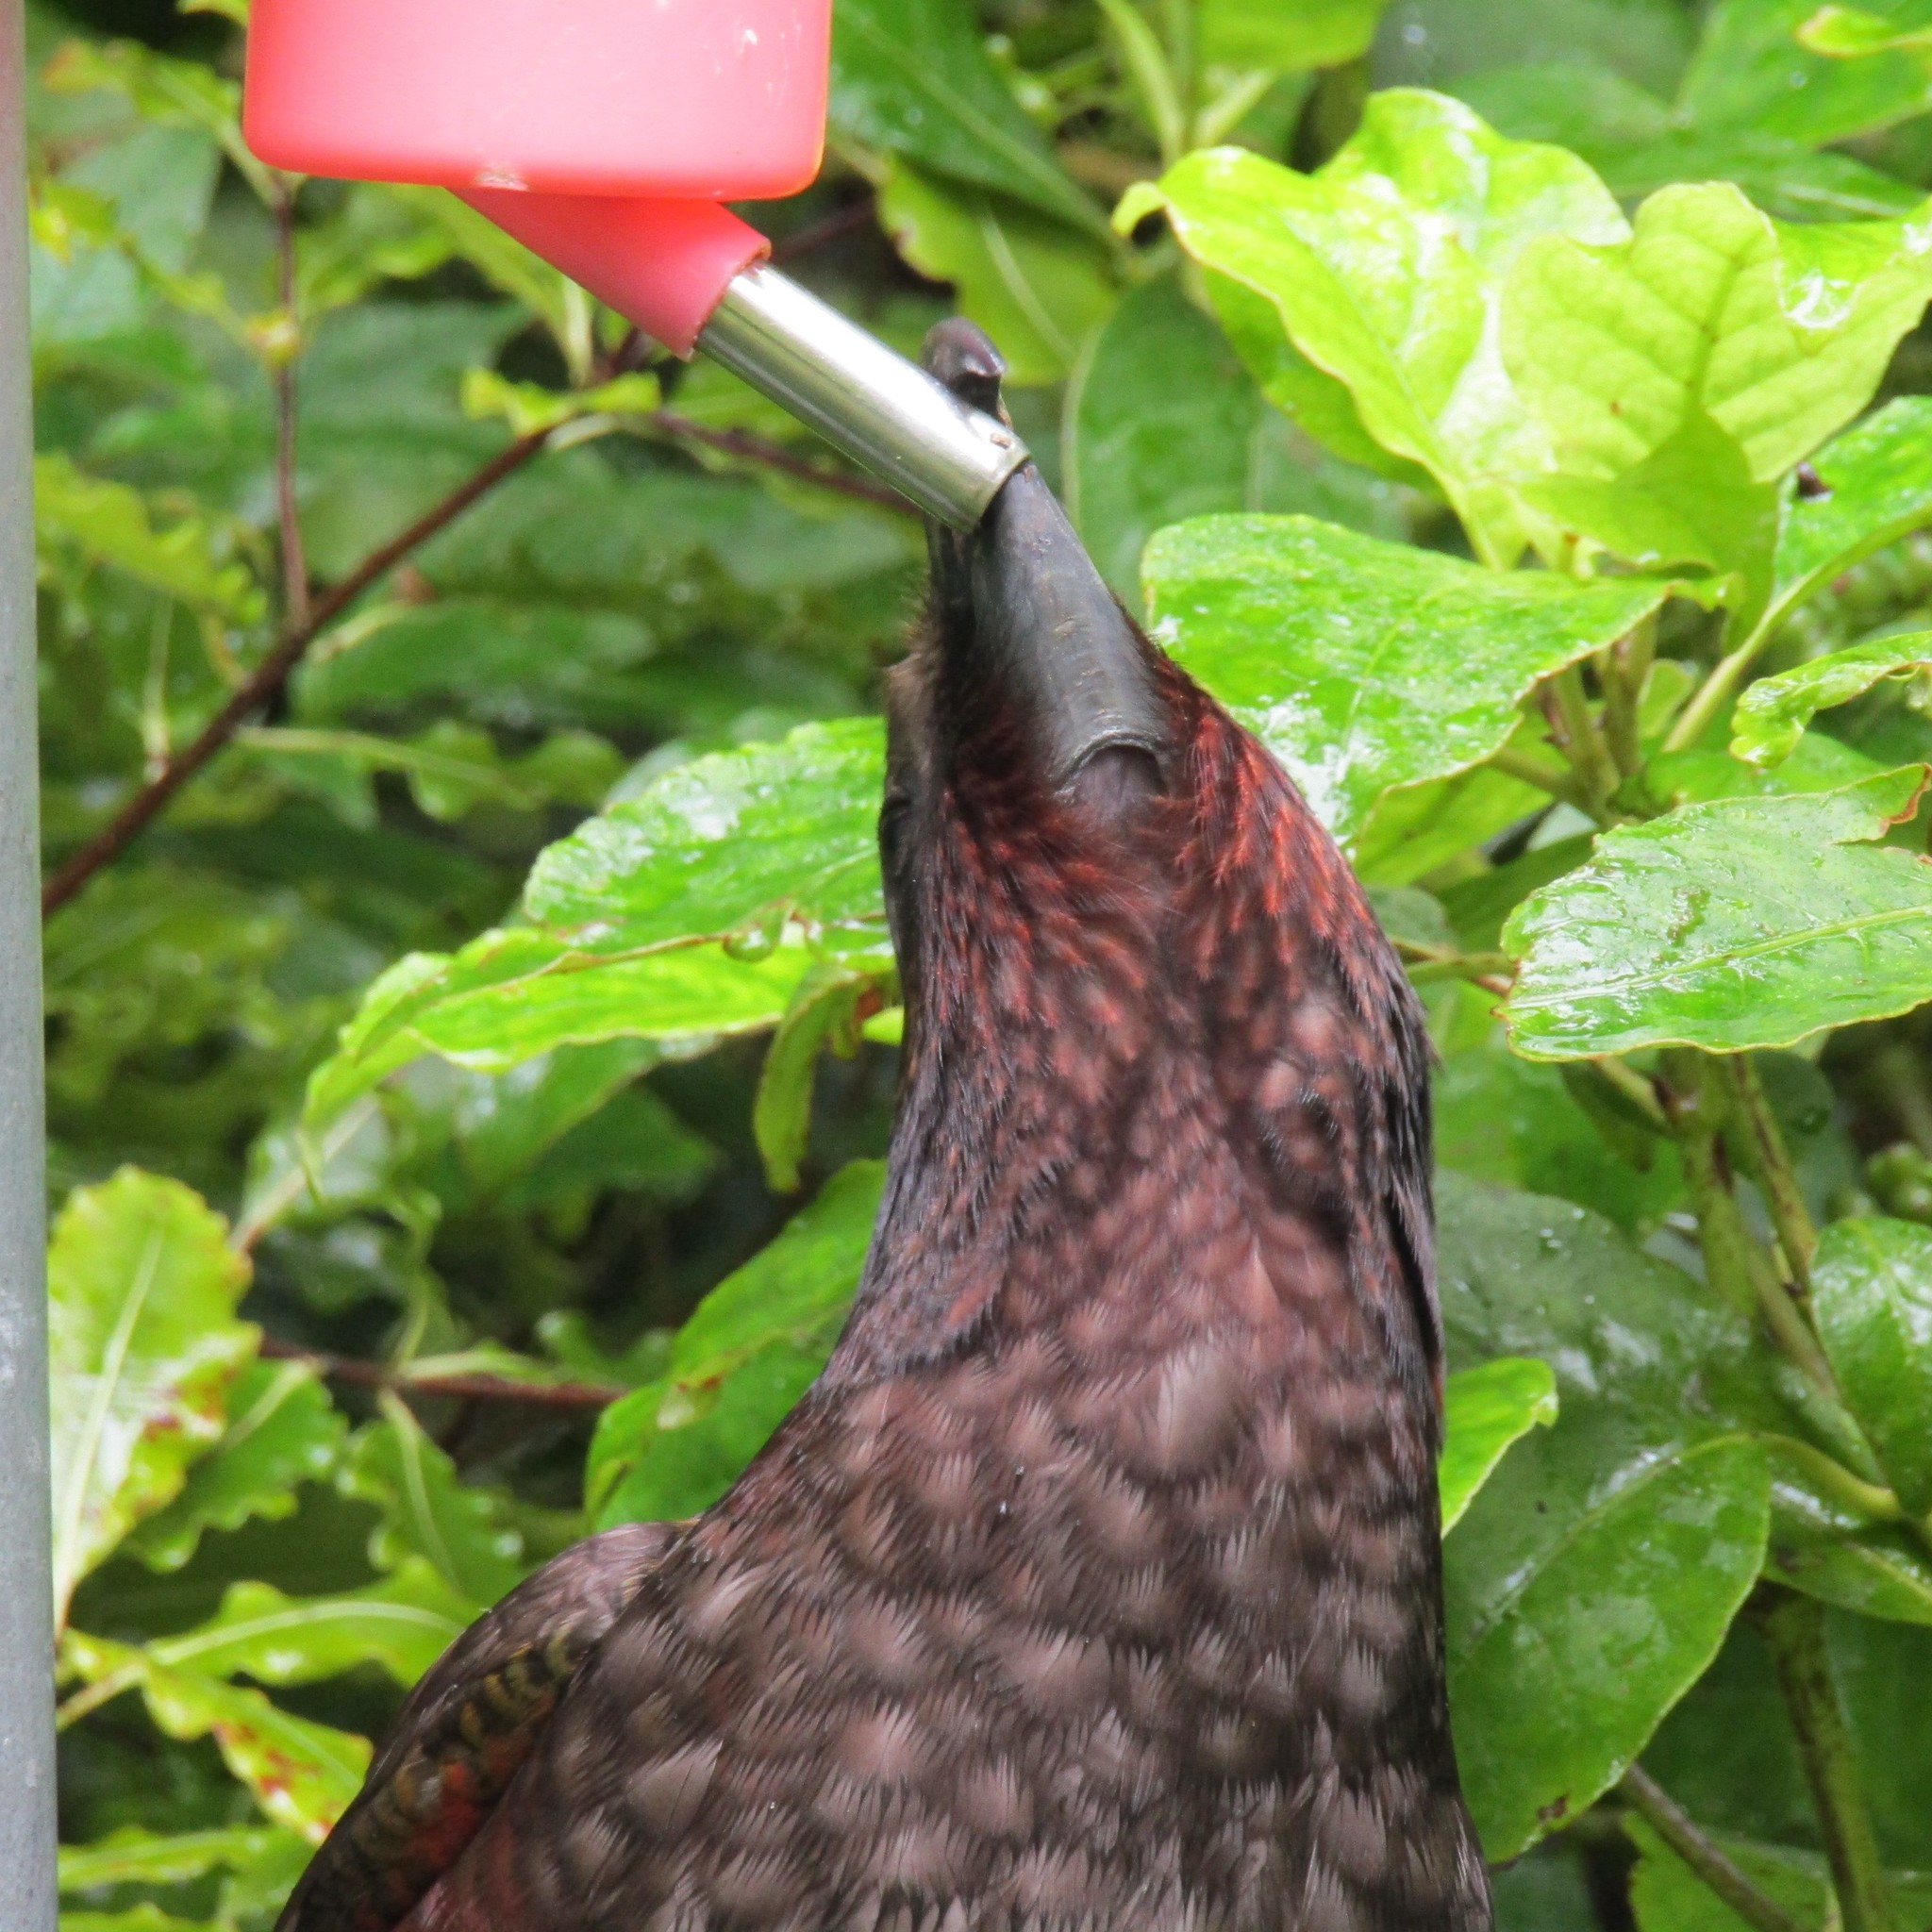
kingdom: Animalia
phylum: Chordata
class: Aves
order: Psittaciformes
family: Psittacidae
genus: Nestor
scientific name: Nestor meridionalis
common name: New zealand kaka
